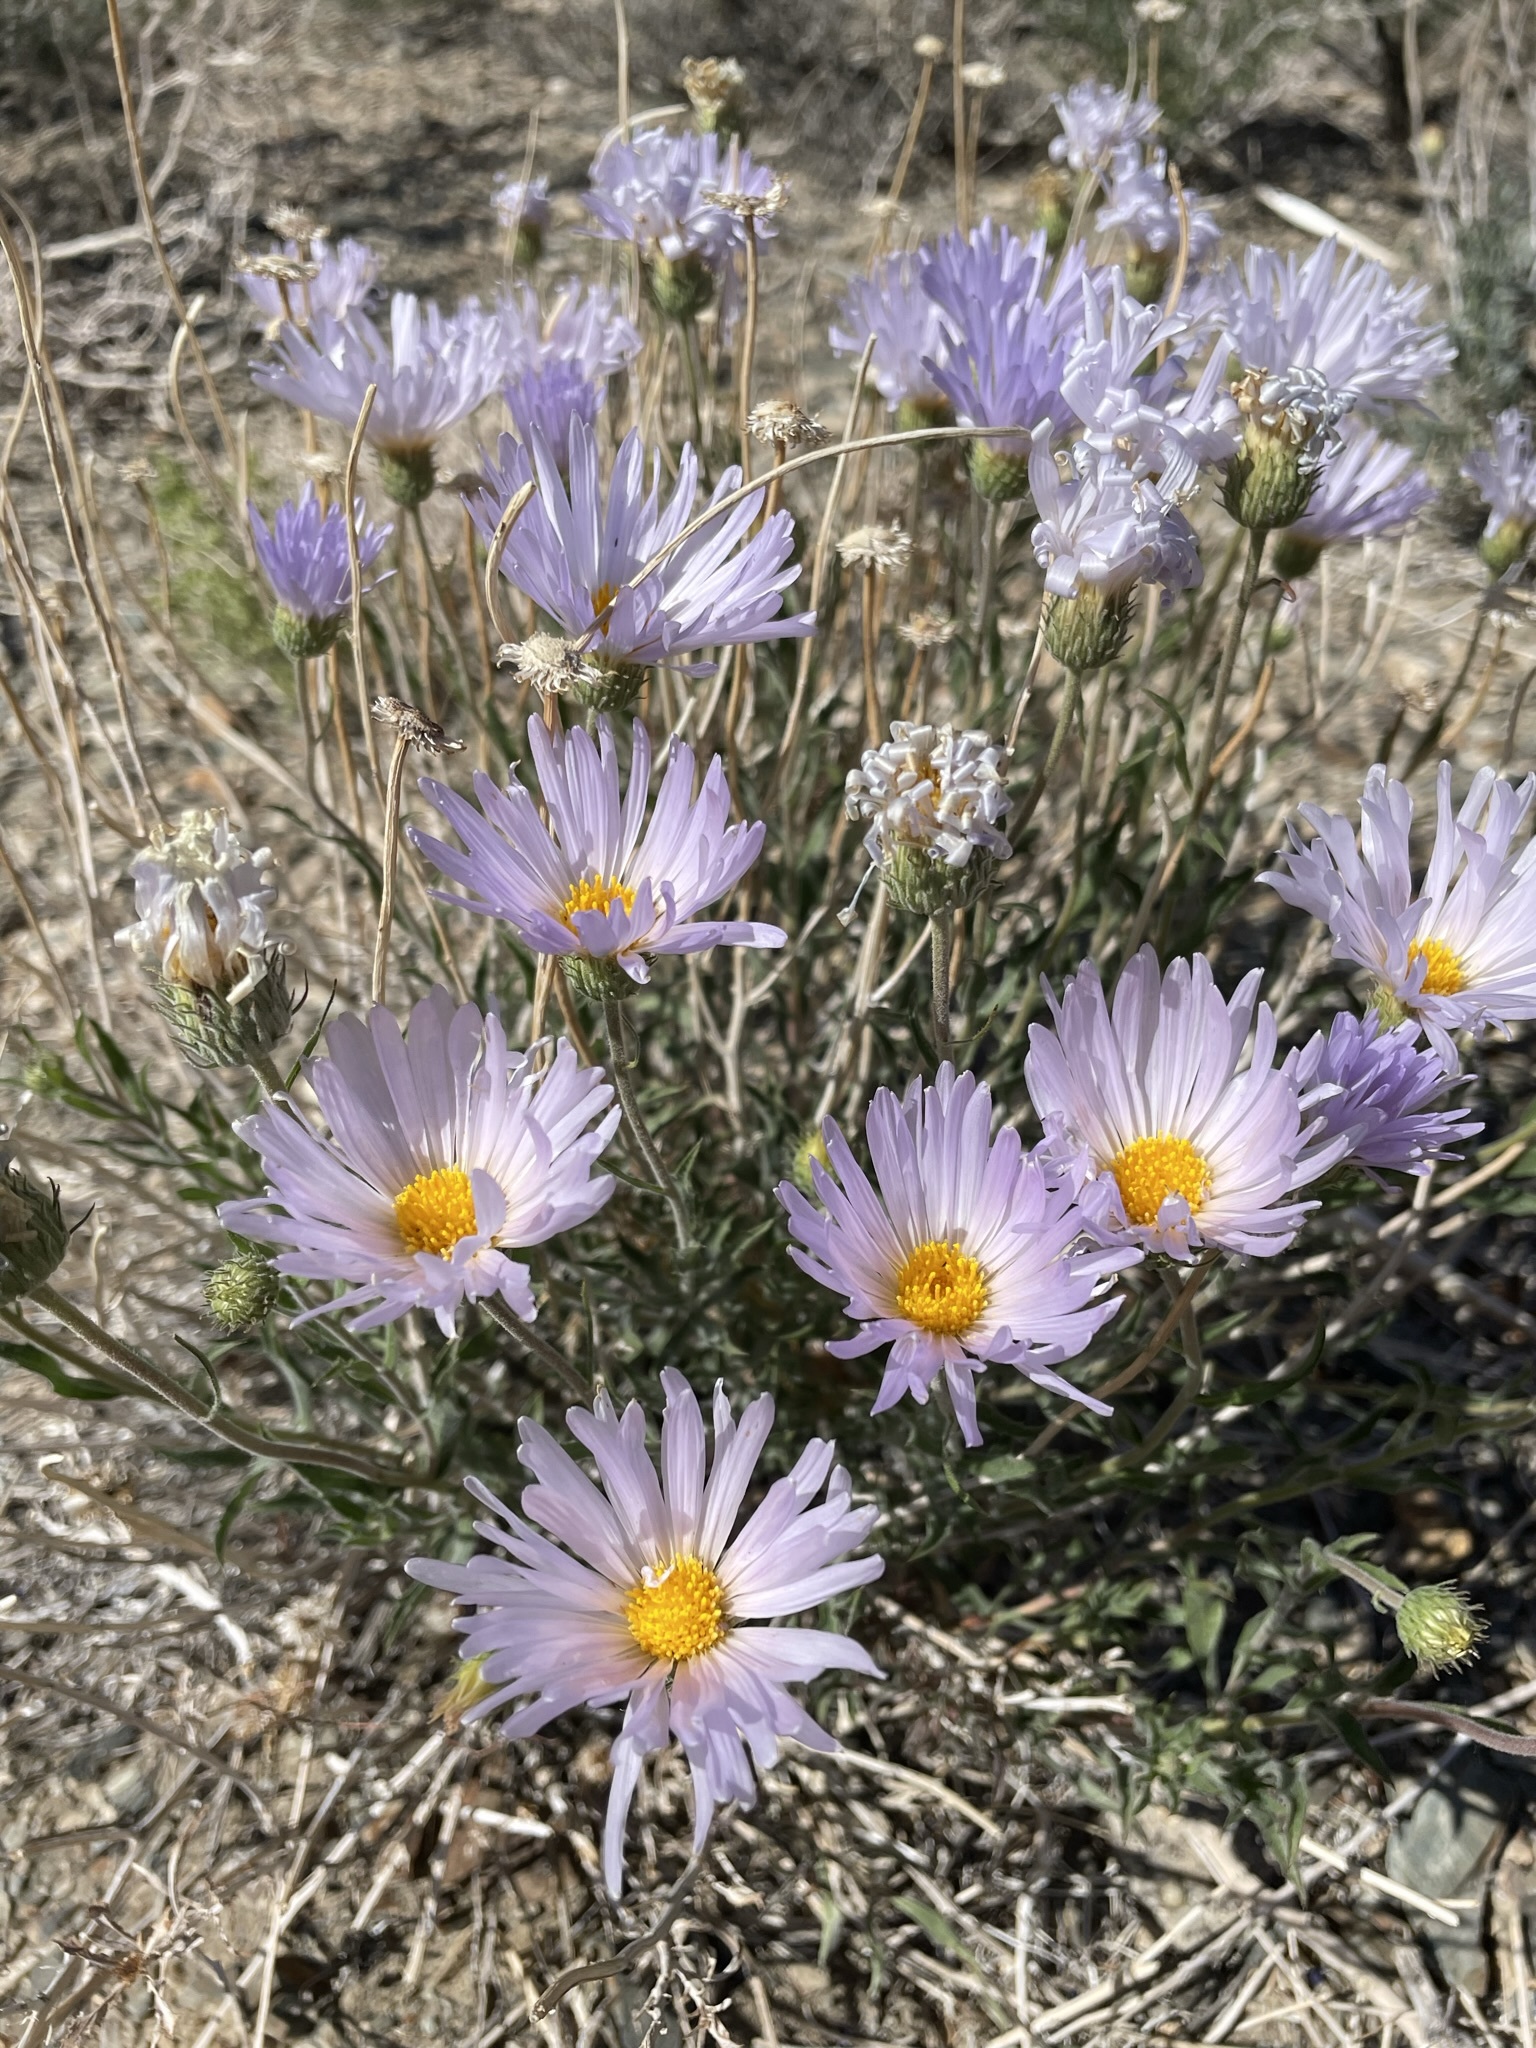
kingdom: Plantae
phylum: Tracheophyta
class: Magnoliopsida
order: Asterales
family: Asteraceae
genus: Xylorhiza
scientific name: Xylorhiza tortifolia
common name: Hurt-leaf woody-aster
